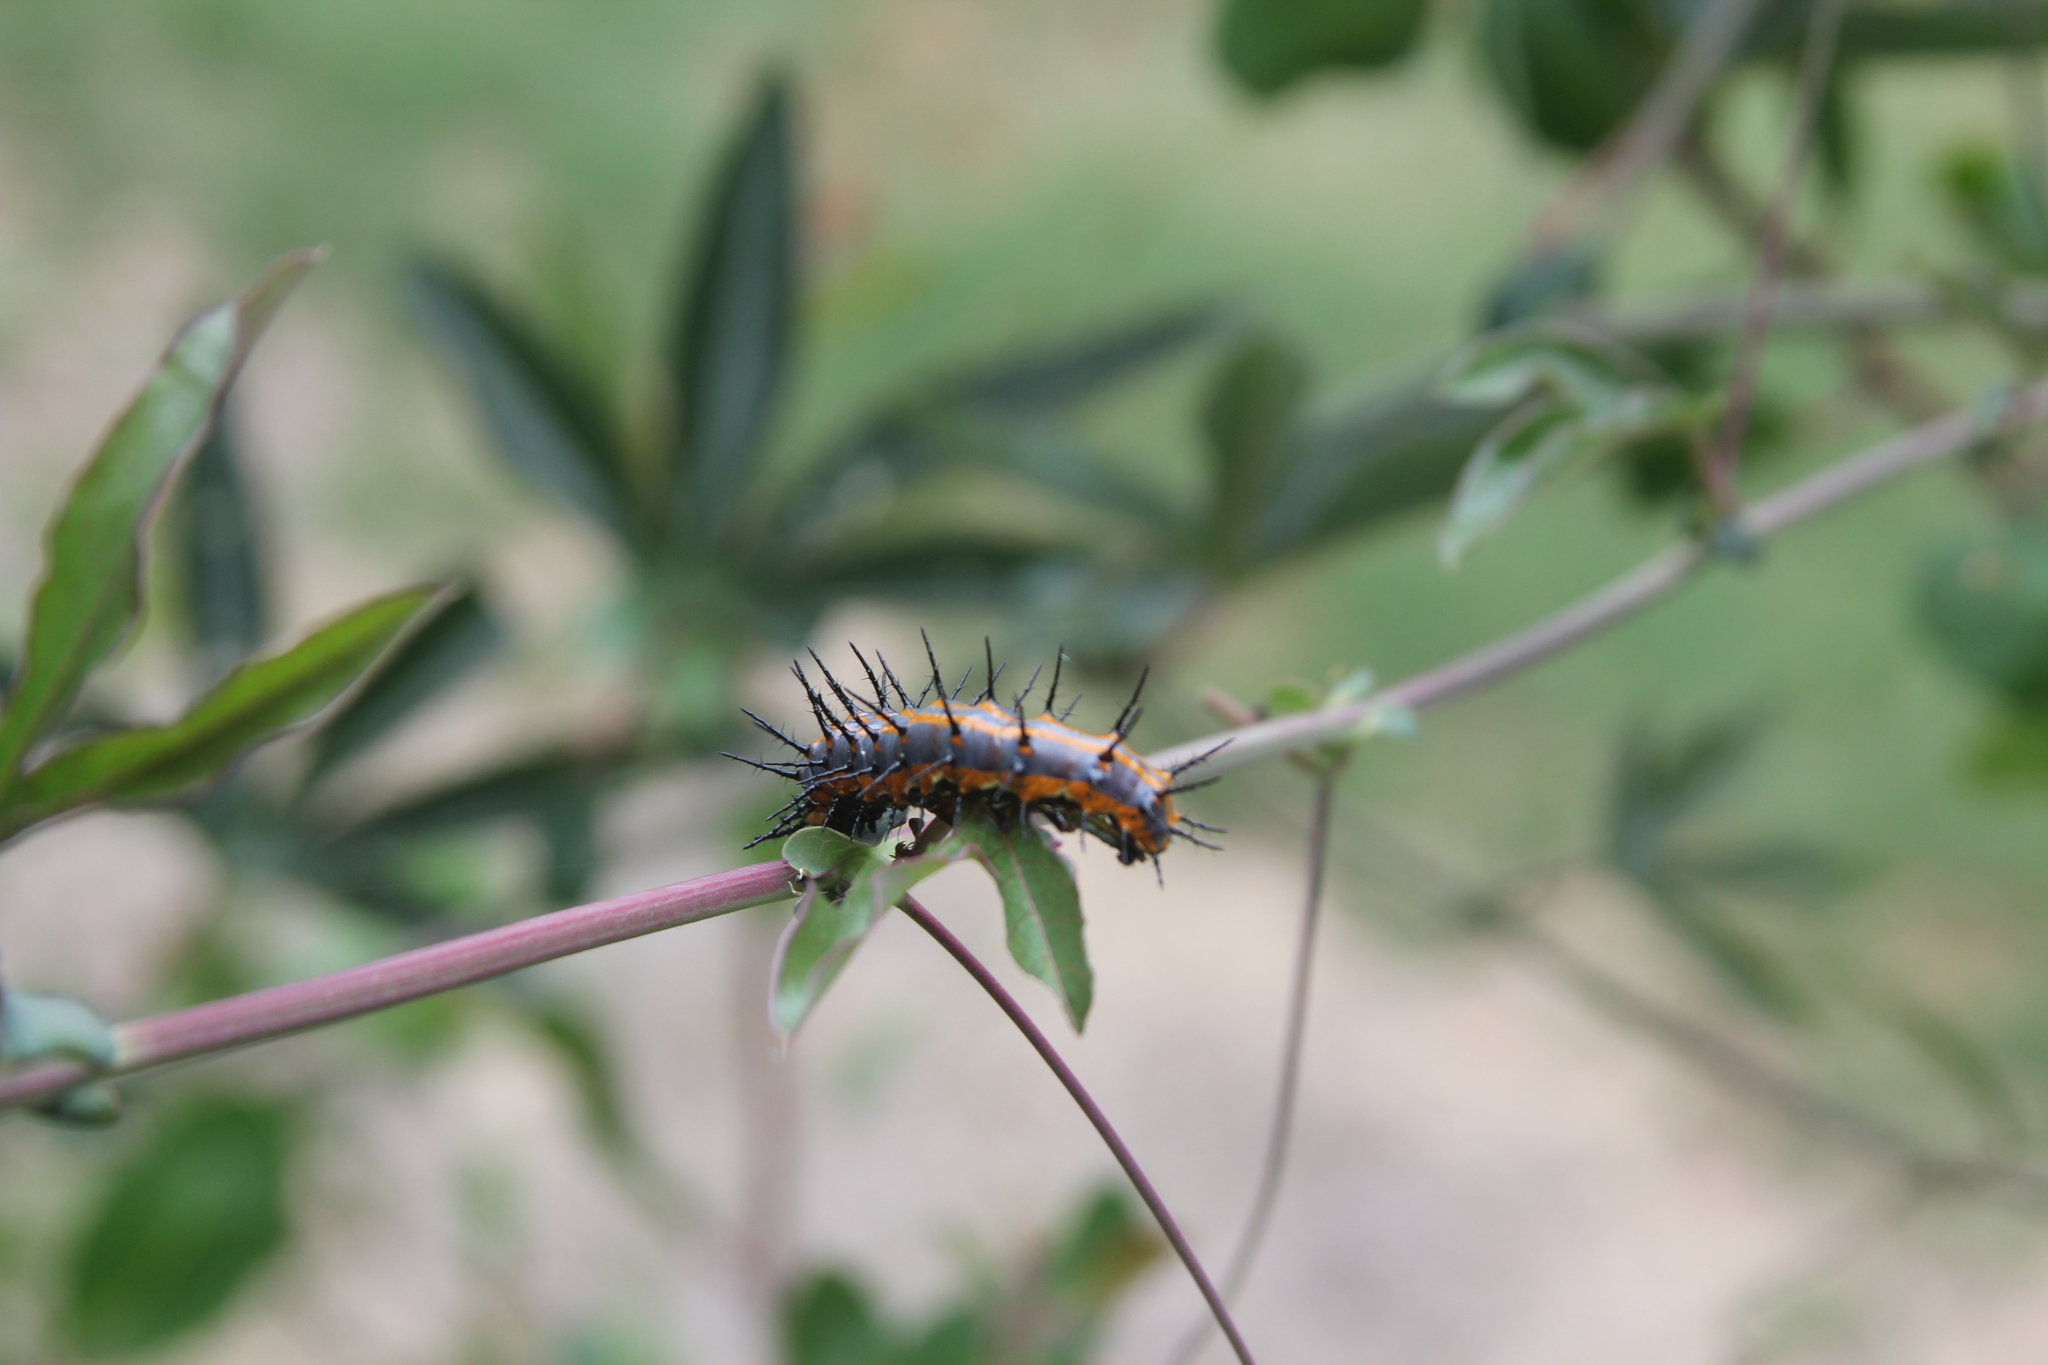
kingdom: Animalia
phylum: Arthropoda
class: Insecta
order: Lepidoptera
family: Nymphalidae
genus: Dione
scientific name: Dione vanillae
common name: Gulf fritillary
